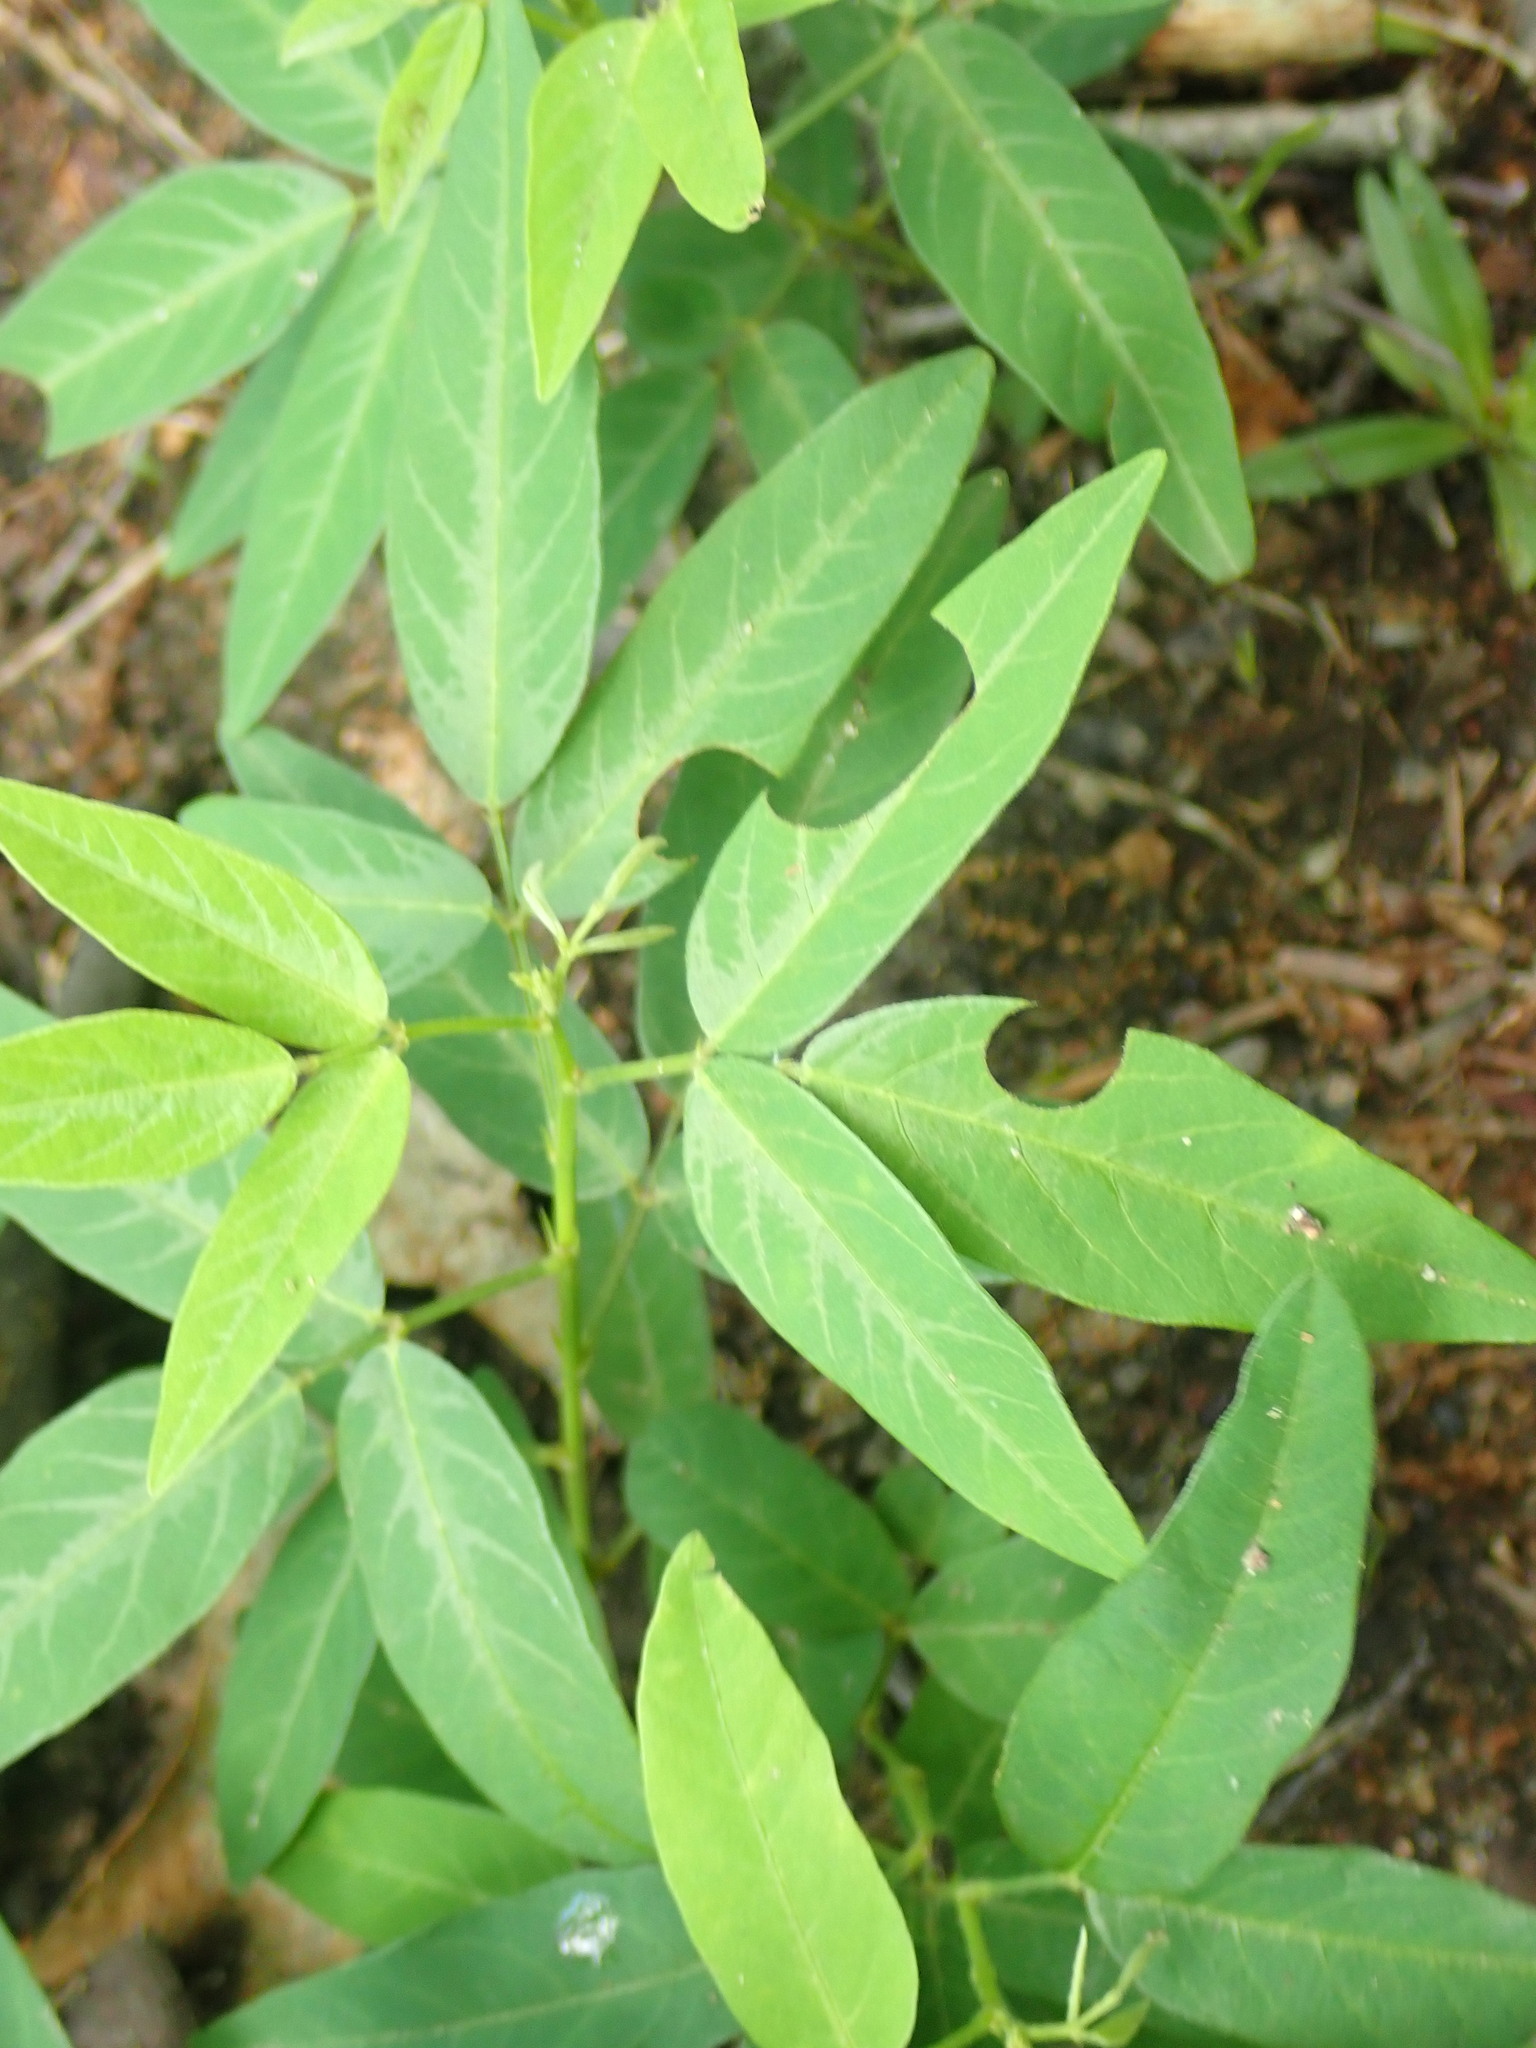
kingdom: Plantae
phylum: Tracheophyta
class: Magnoliopsida
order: Fabales
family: Fabaceae
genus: Desmodium
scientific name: Desmodium paniculatum
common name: Panicled tick-clover
